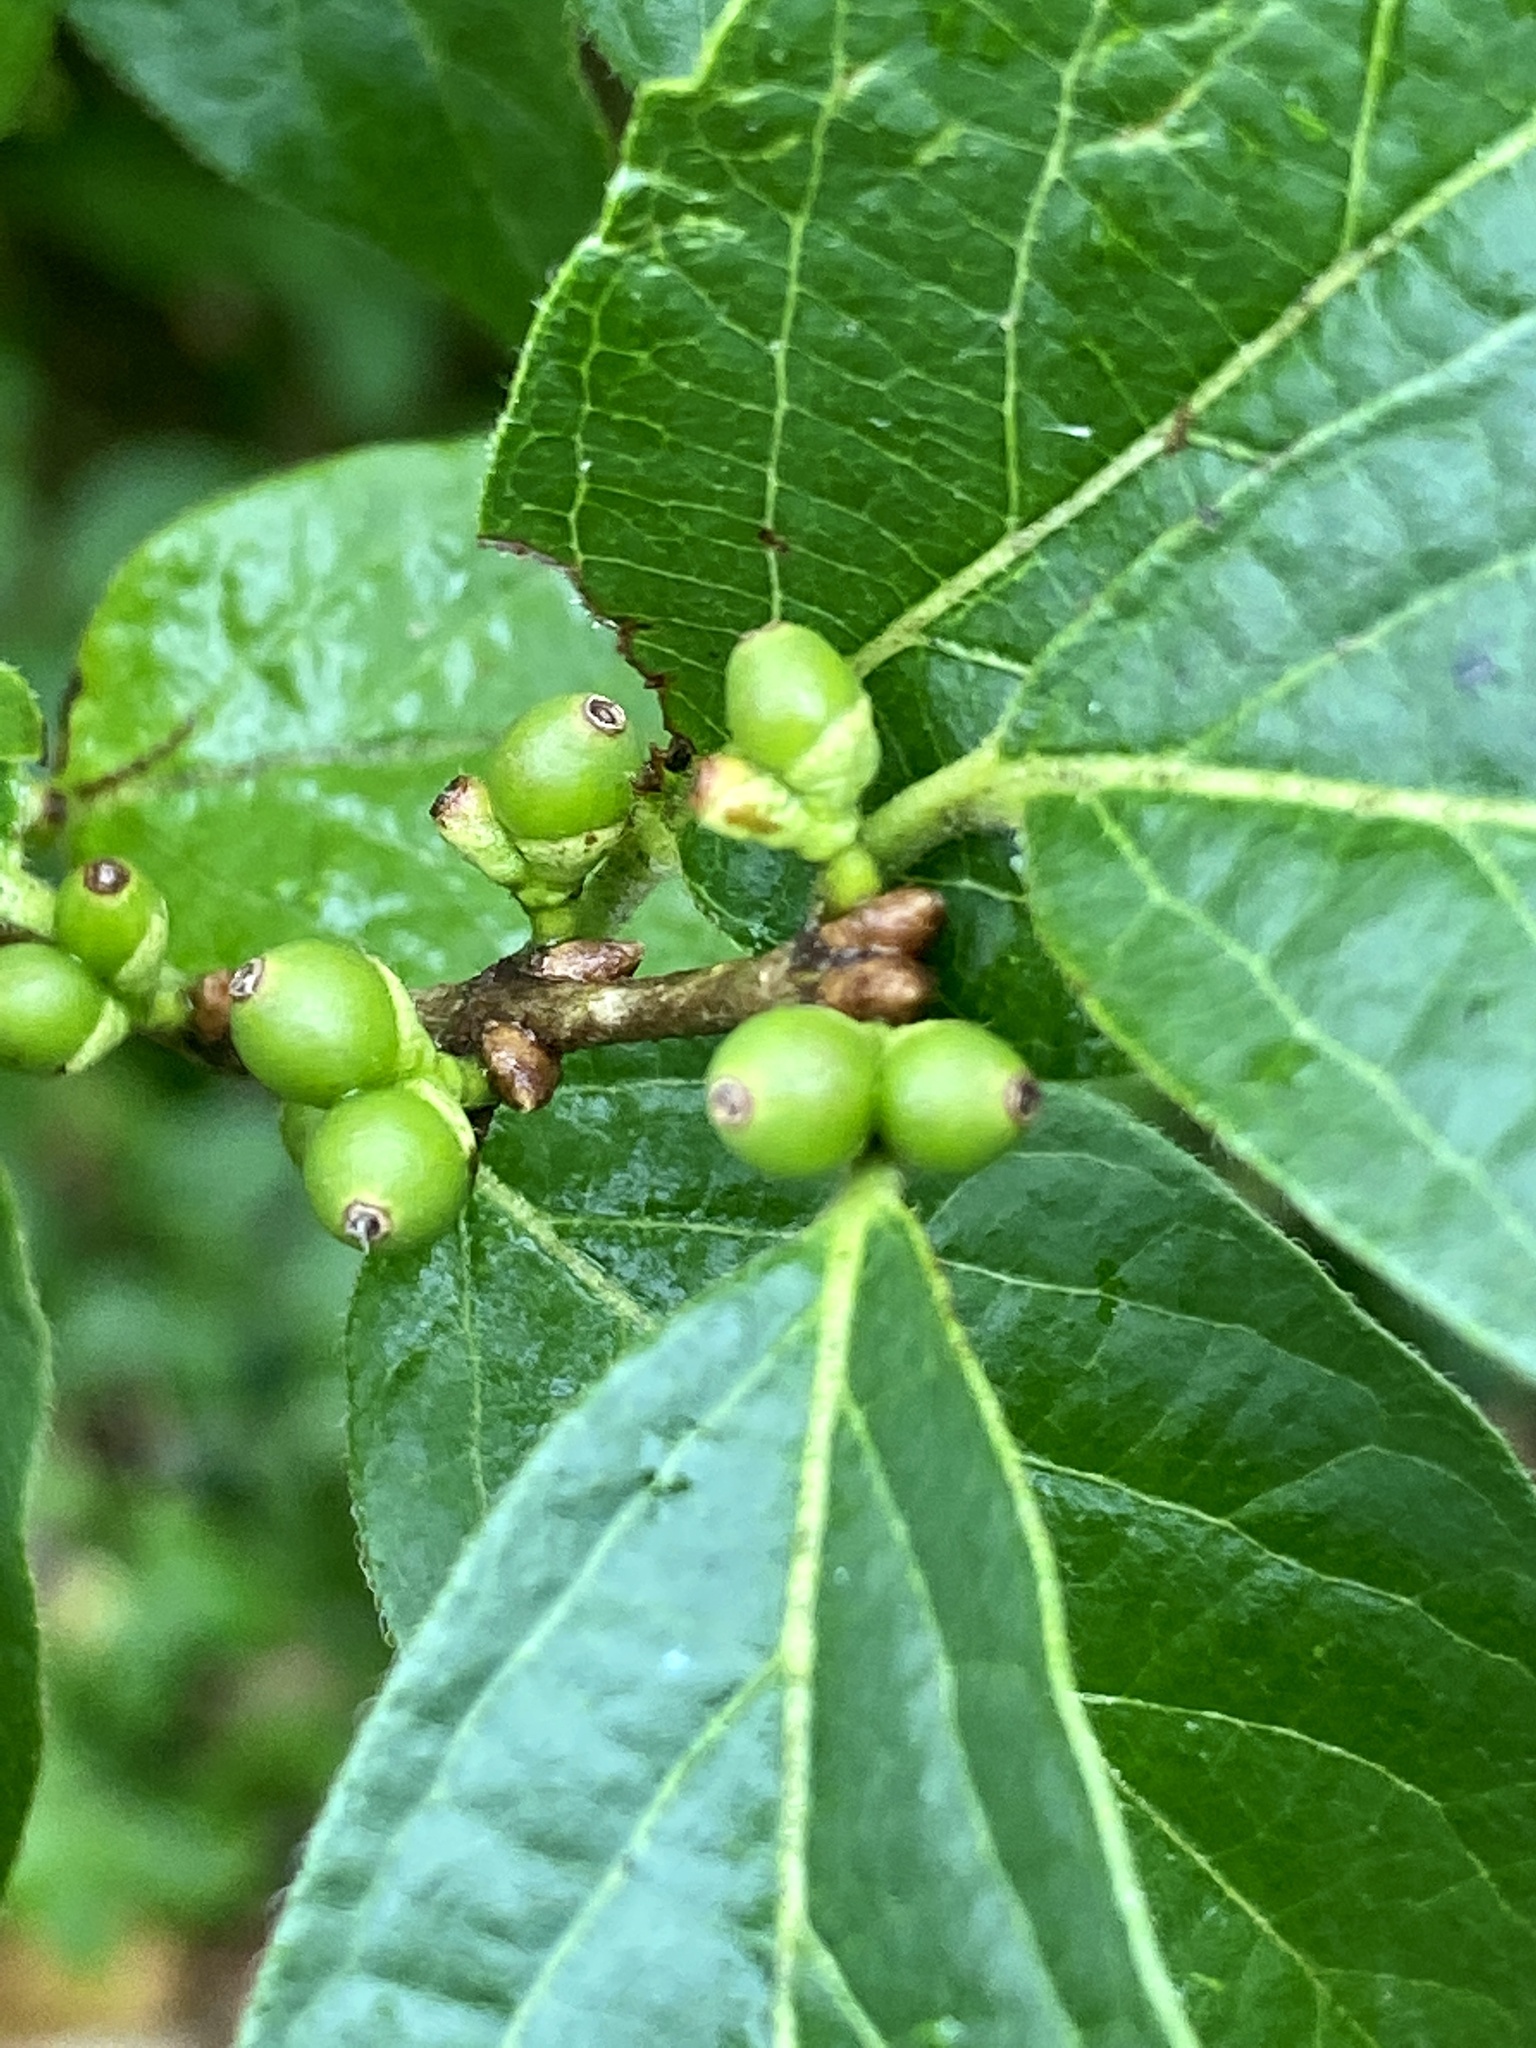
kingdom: Plantae
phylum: Tracheophyta
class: Magnoliopsida
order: Dipsacales
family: Caprifoliaceae
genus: Lonicera
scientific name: Lonicera maackii
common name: Amur honeysuckle
